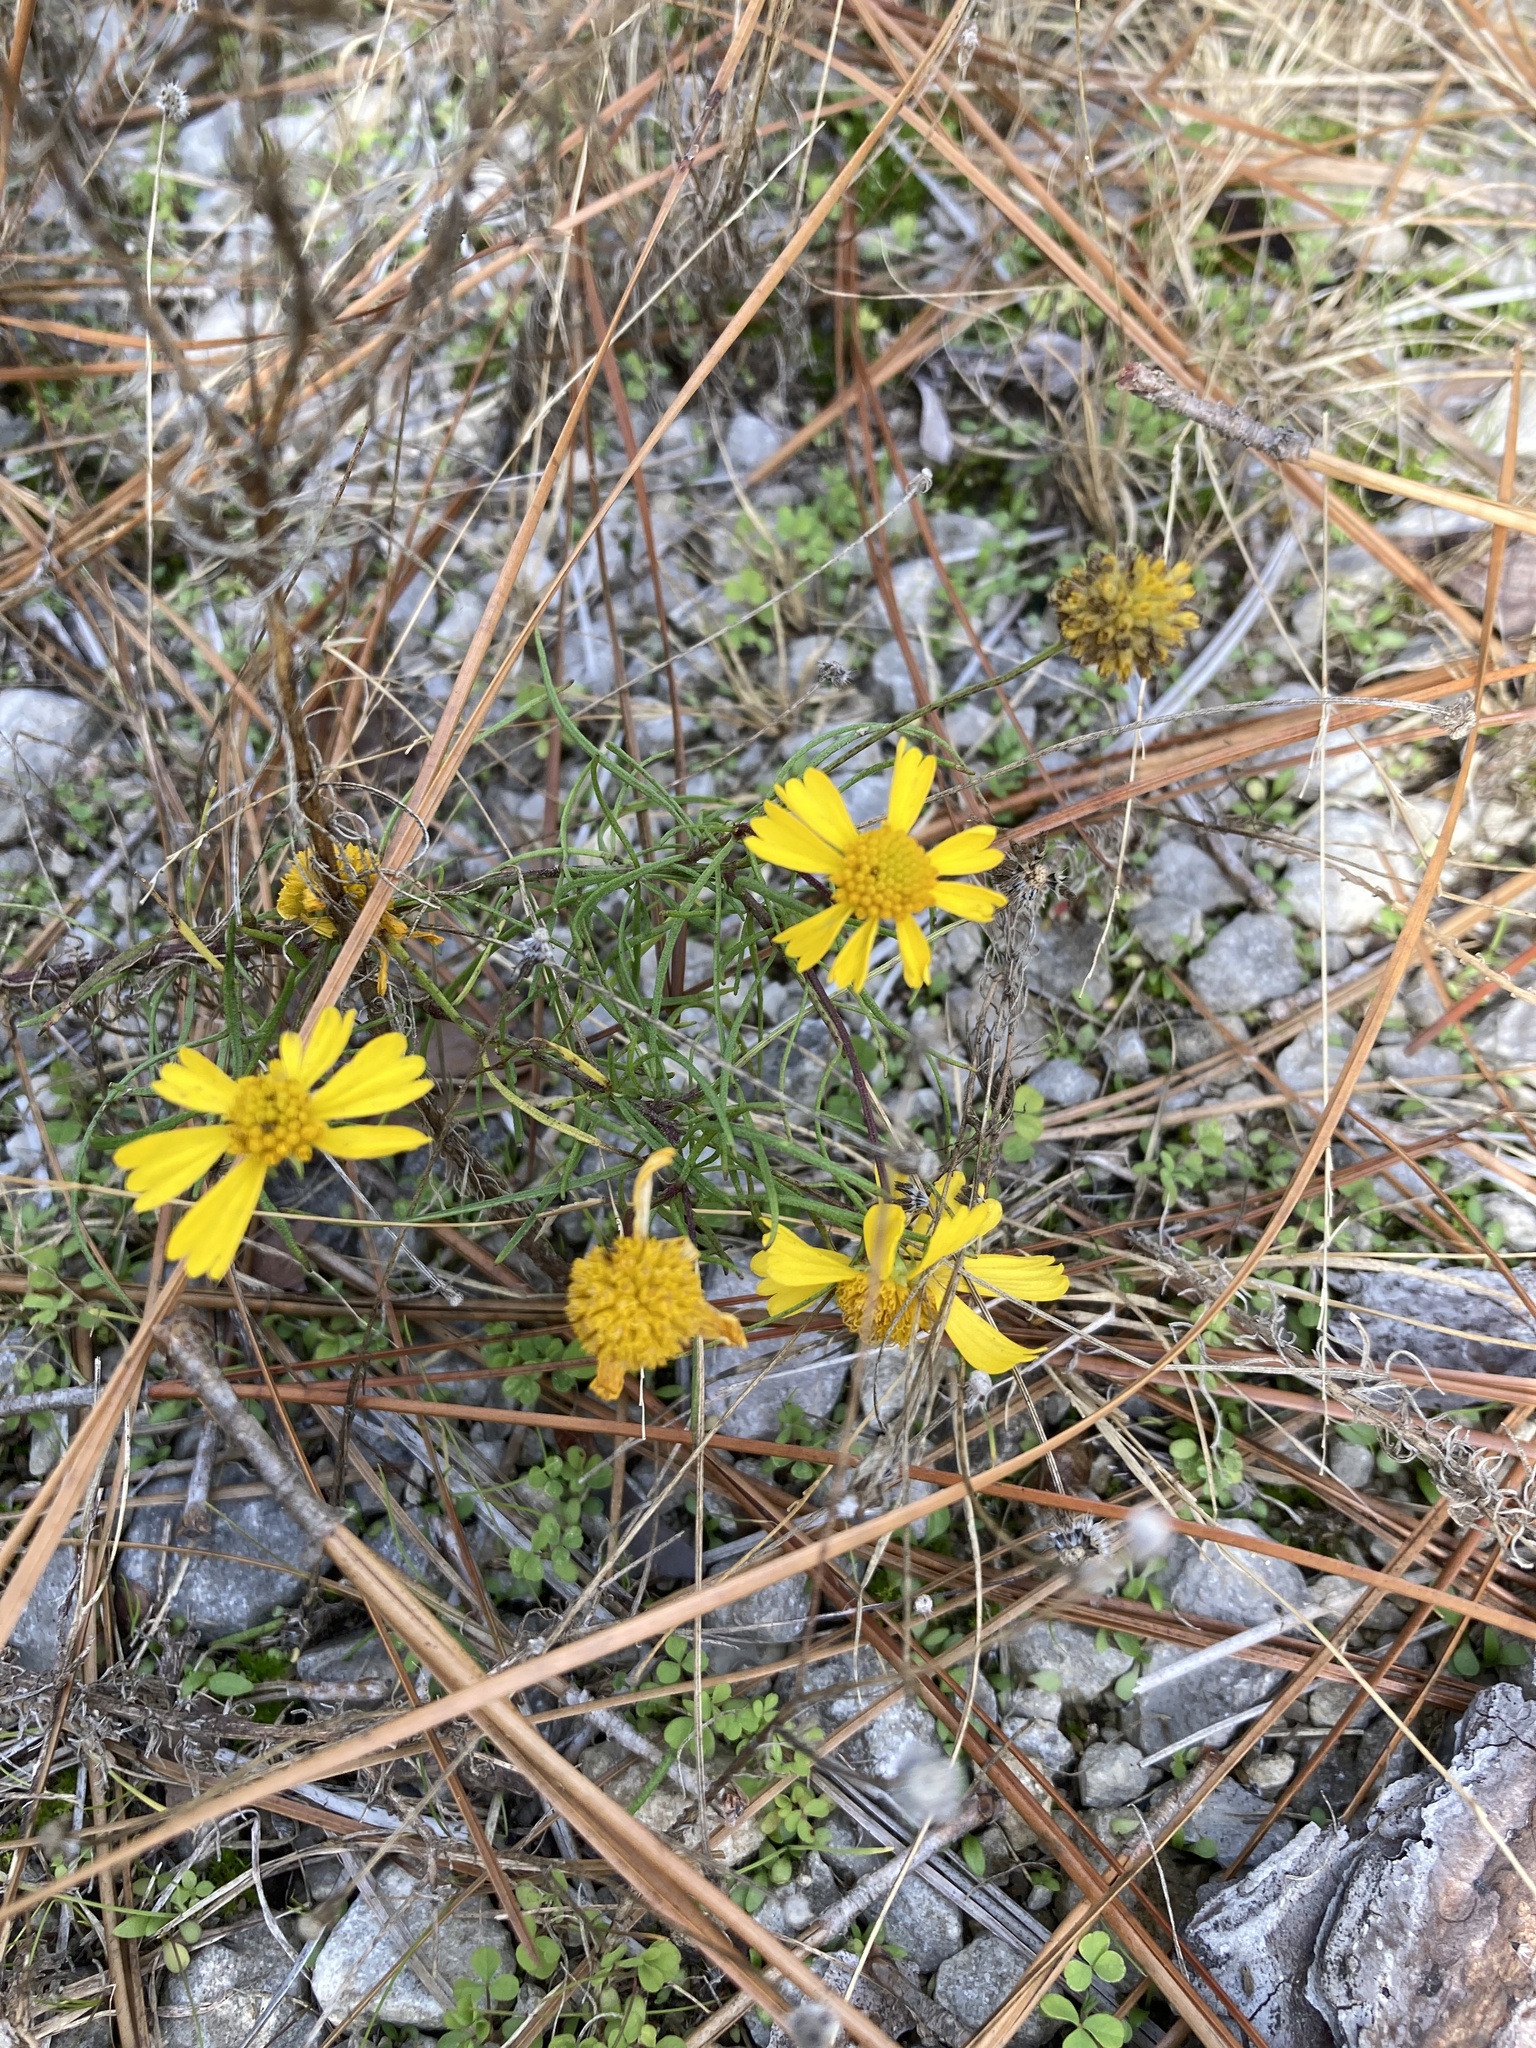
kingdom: Plantae
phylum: Tracheophyta
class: Magnoliopsida
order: Asterales
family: Asteraceae
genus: Helenium
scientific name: Helenium amarum
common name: Bitter sneezeweed
